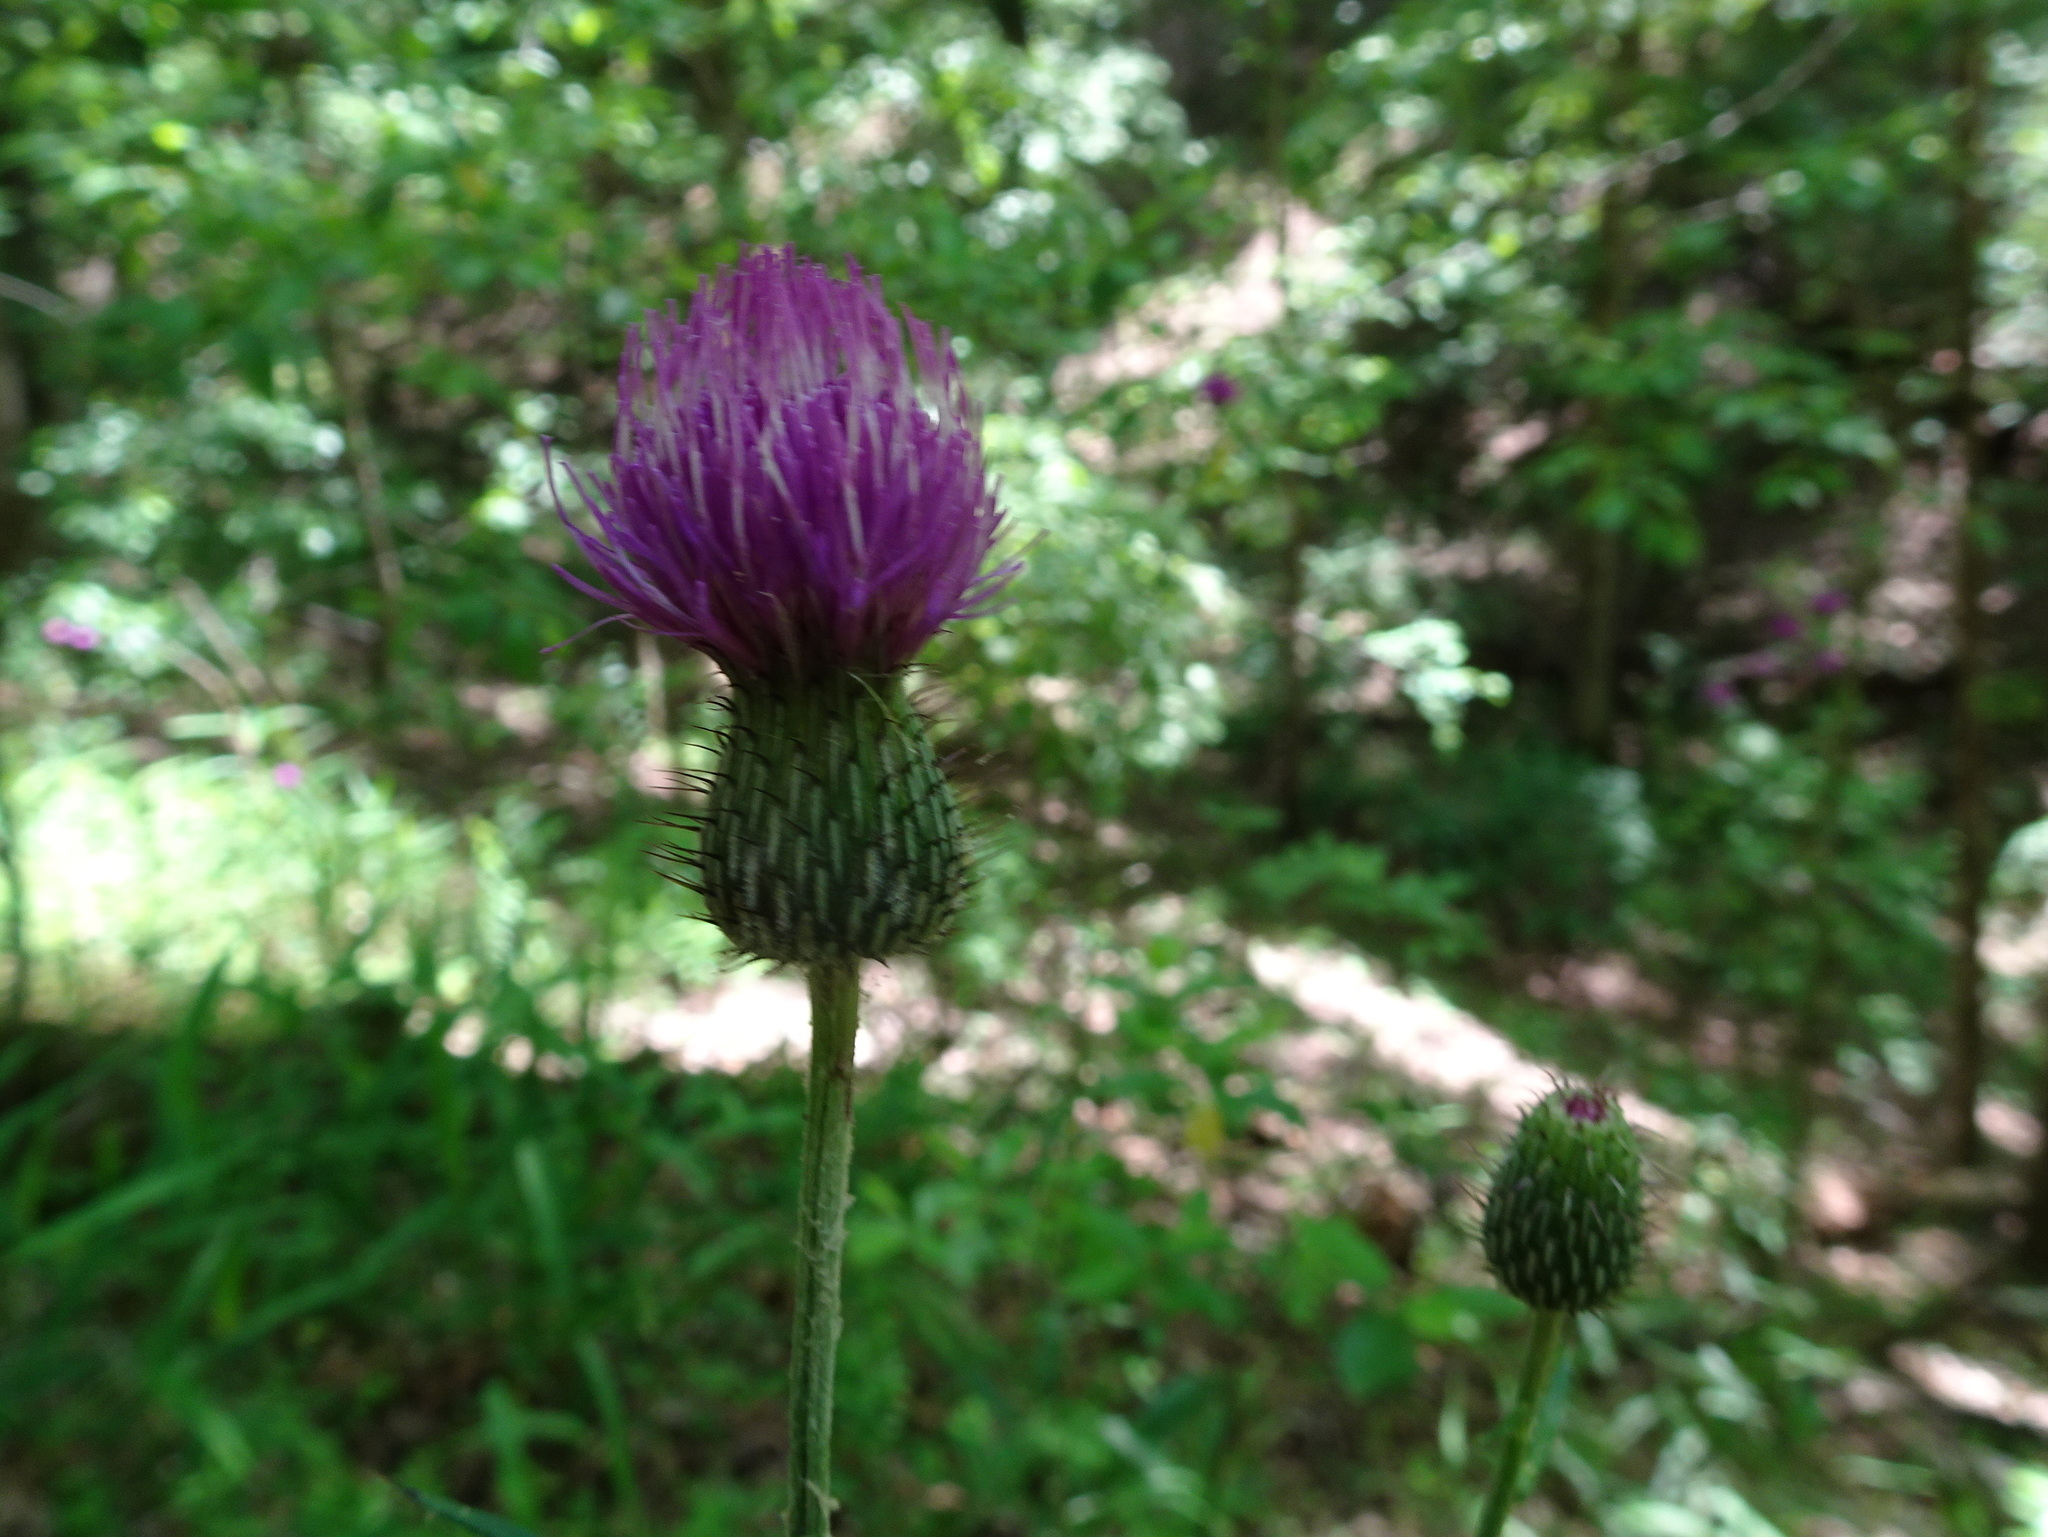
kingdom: Plantae
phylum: Tracheophyta
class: Magnoliopsida
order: Asterales
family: Asteraceae
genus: Cirsium
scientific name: Cirsium carolinianum
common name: Carolina thistle
